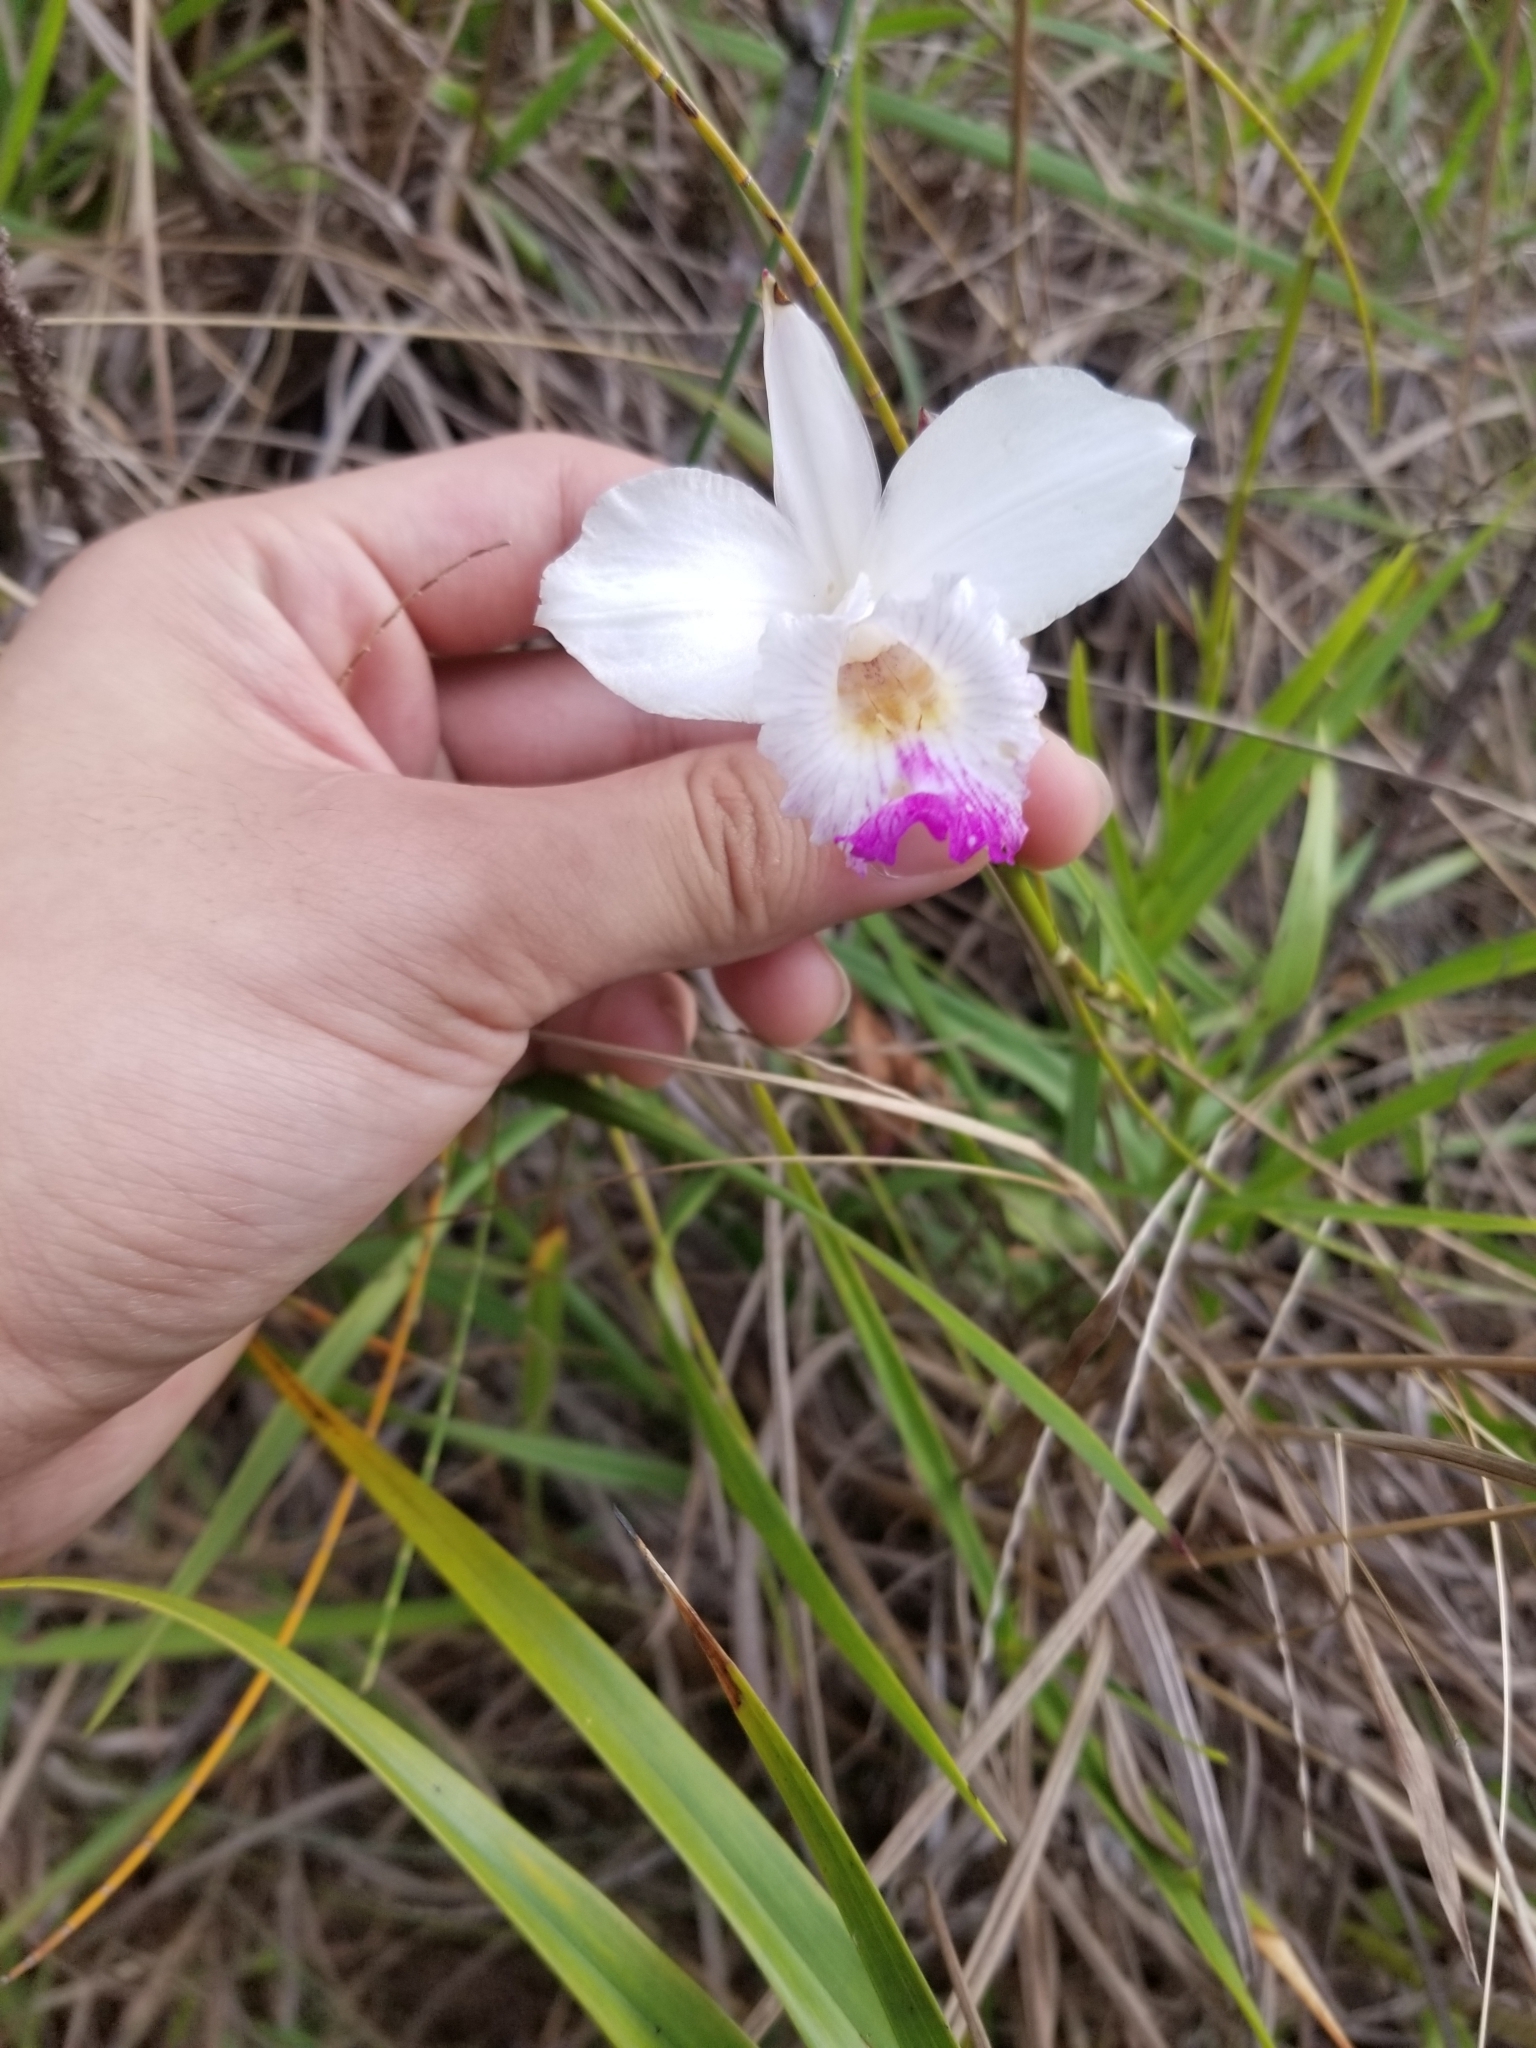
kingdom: Plantae
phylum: Tracheophyta
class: Liliopsida
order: Asparagales
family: Orchidaceae
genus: Arundina
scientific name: Arundina graminifolia
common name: Bamboo orchid
